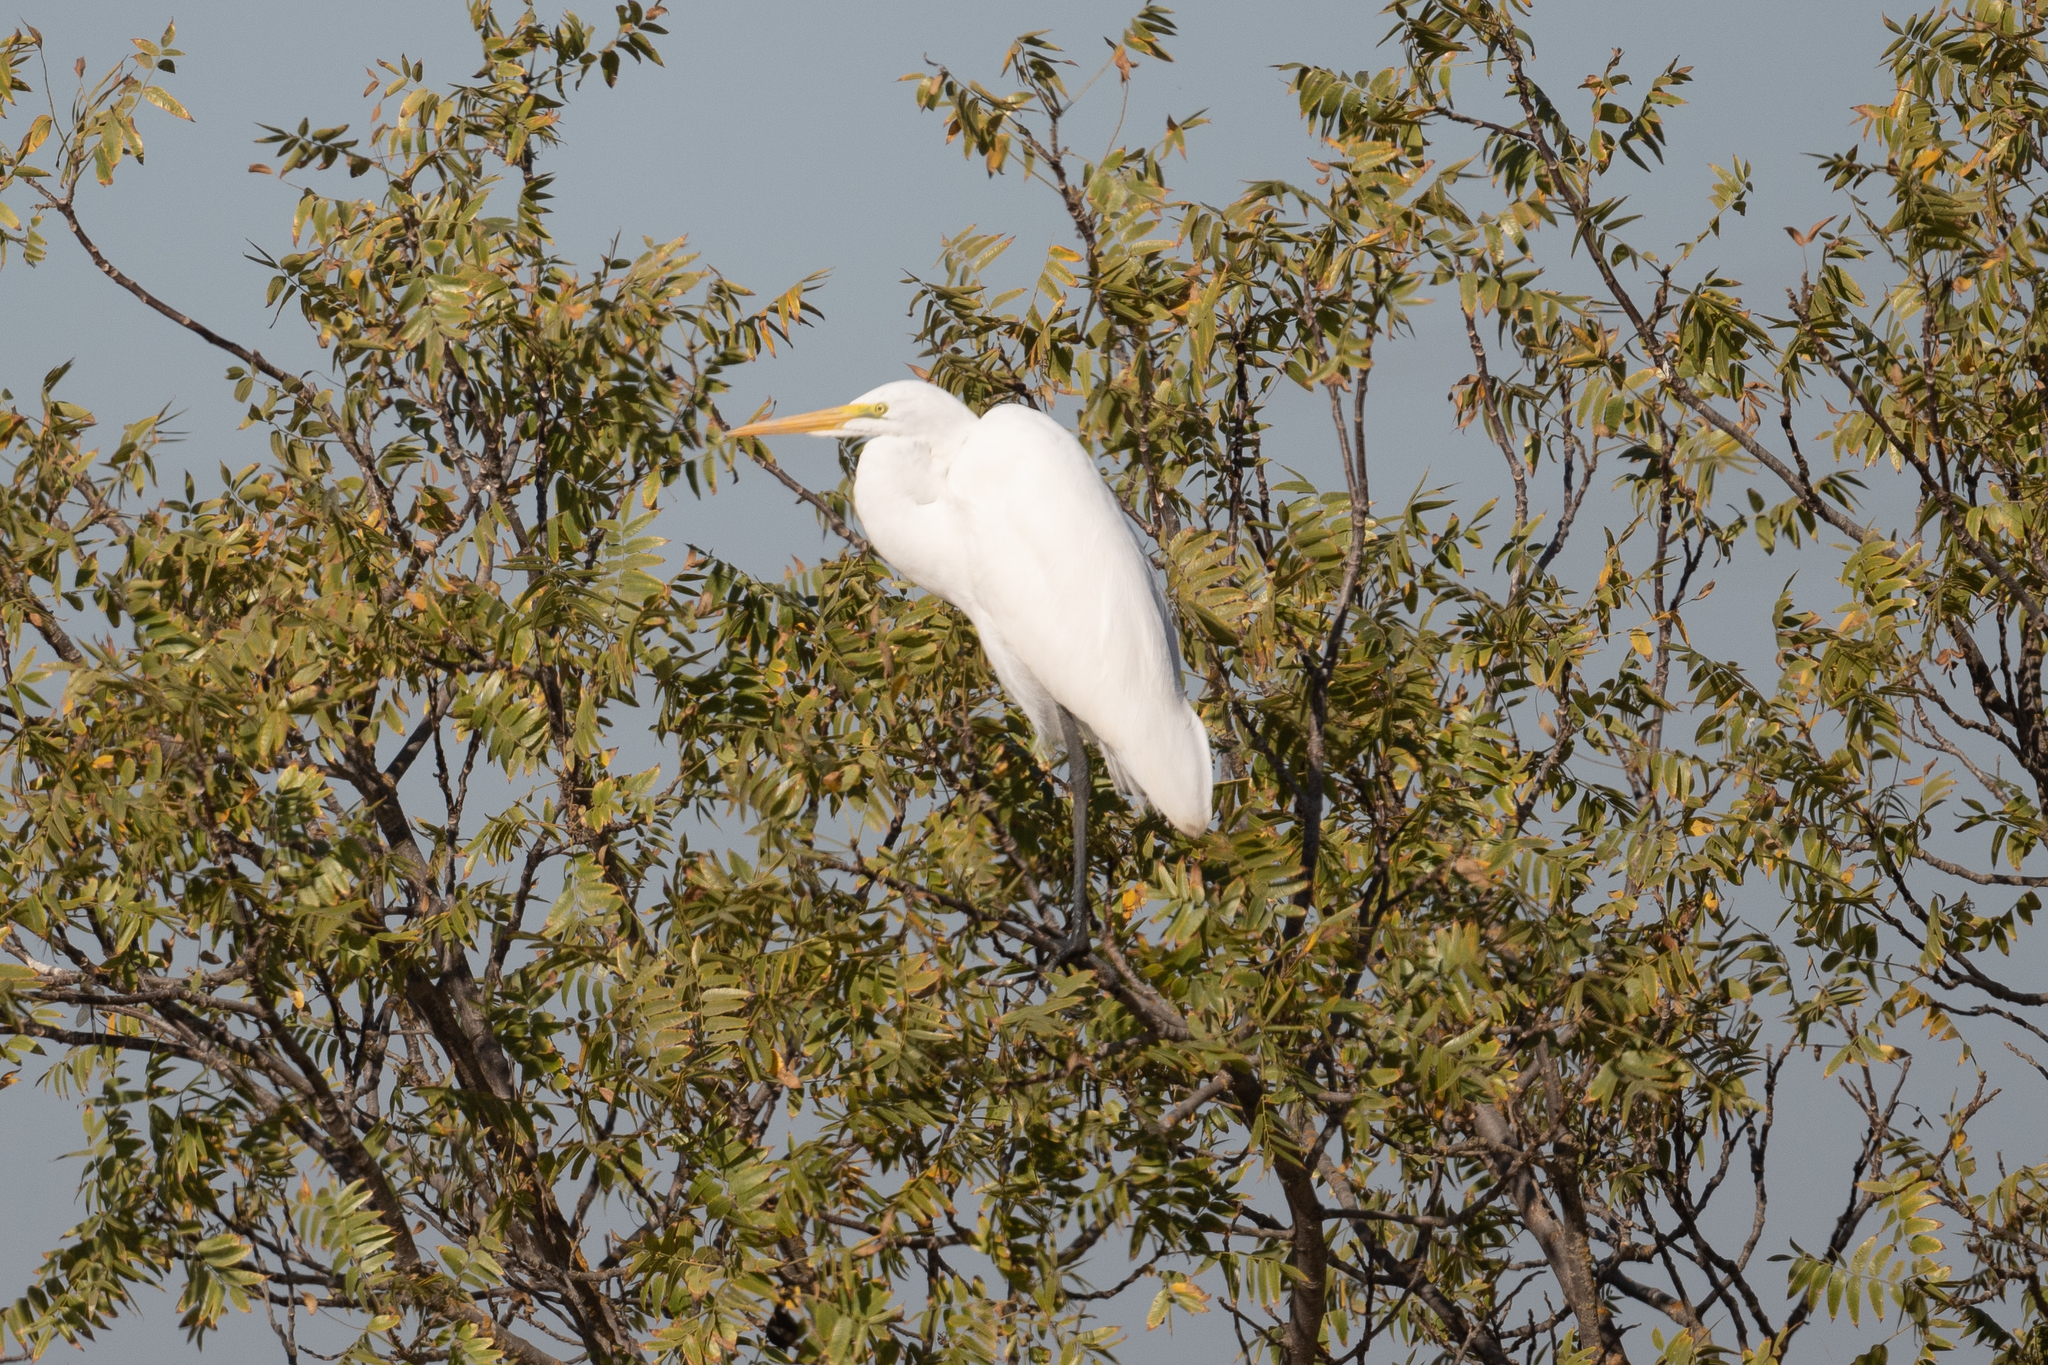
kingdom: Animalia
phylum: Chordata
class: Aves
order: Pelecaniformes
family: Ardeidae
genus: Ardea
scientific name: Ardea alba
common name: Great egret
